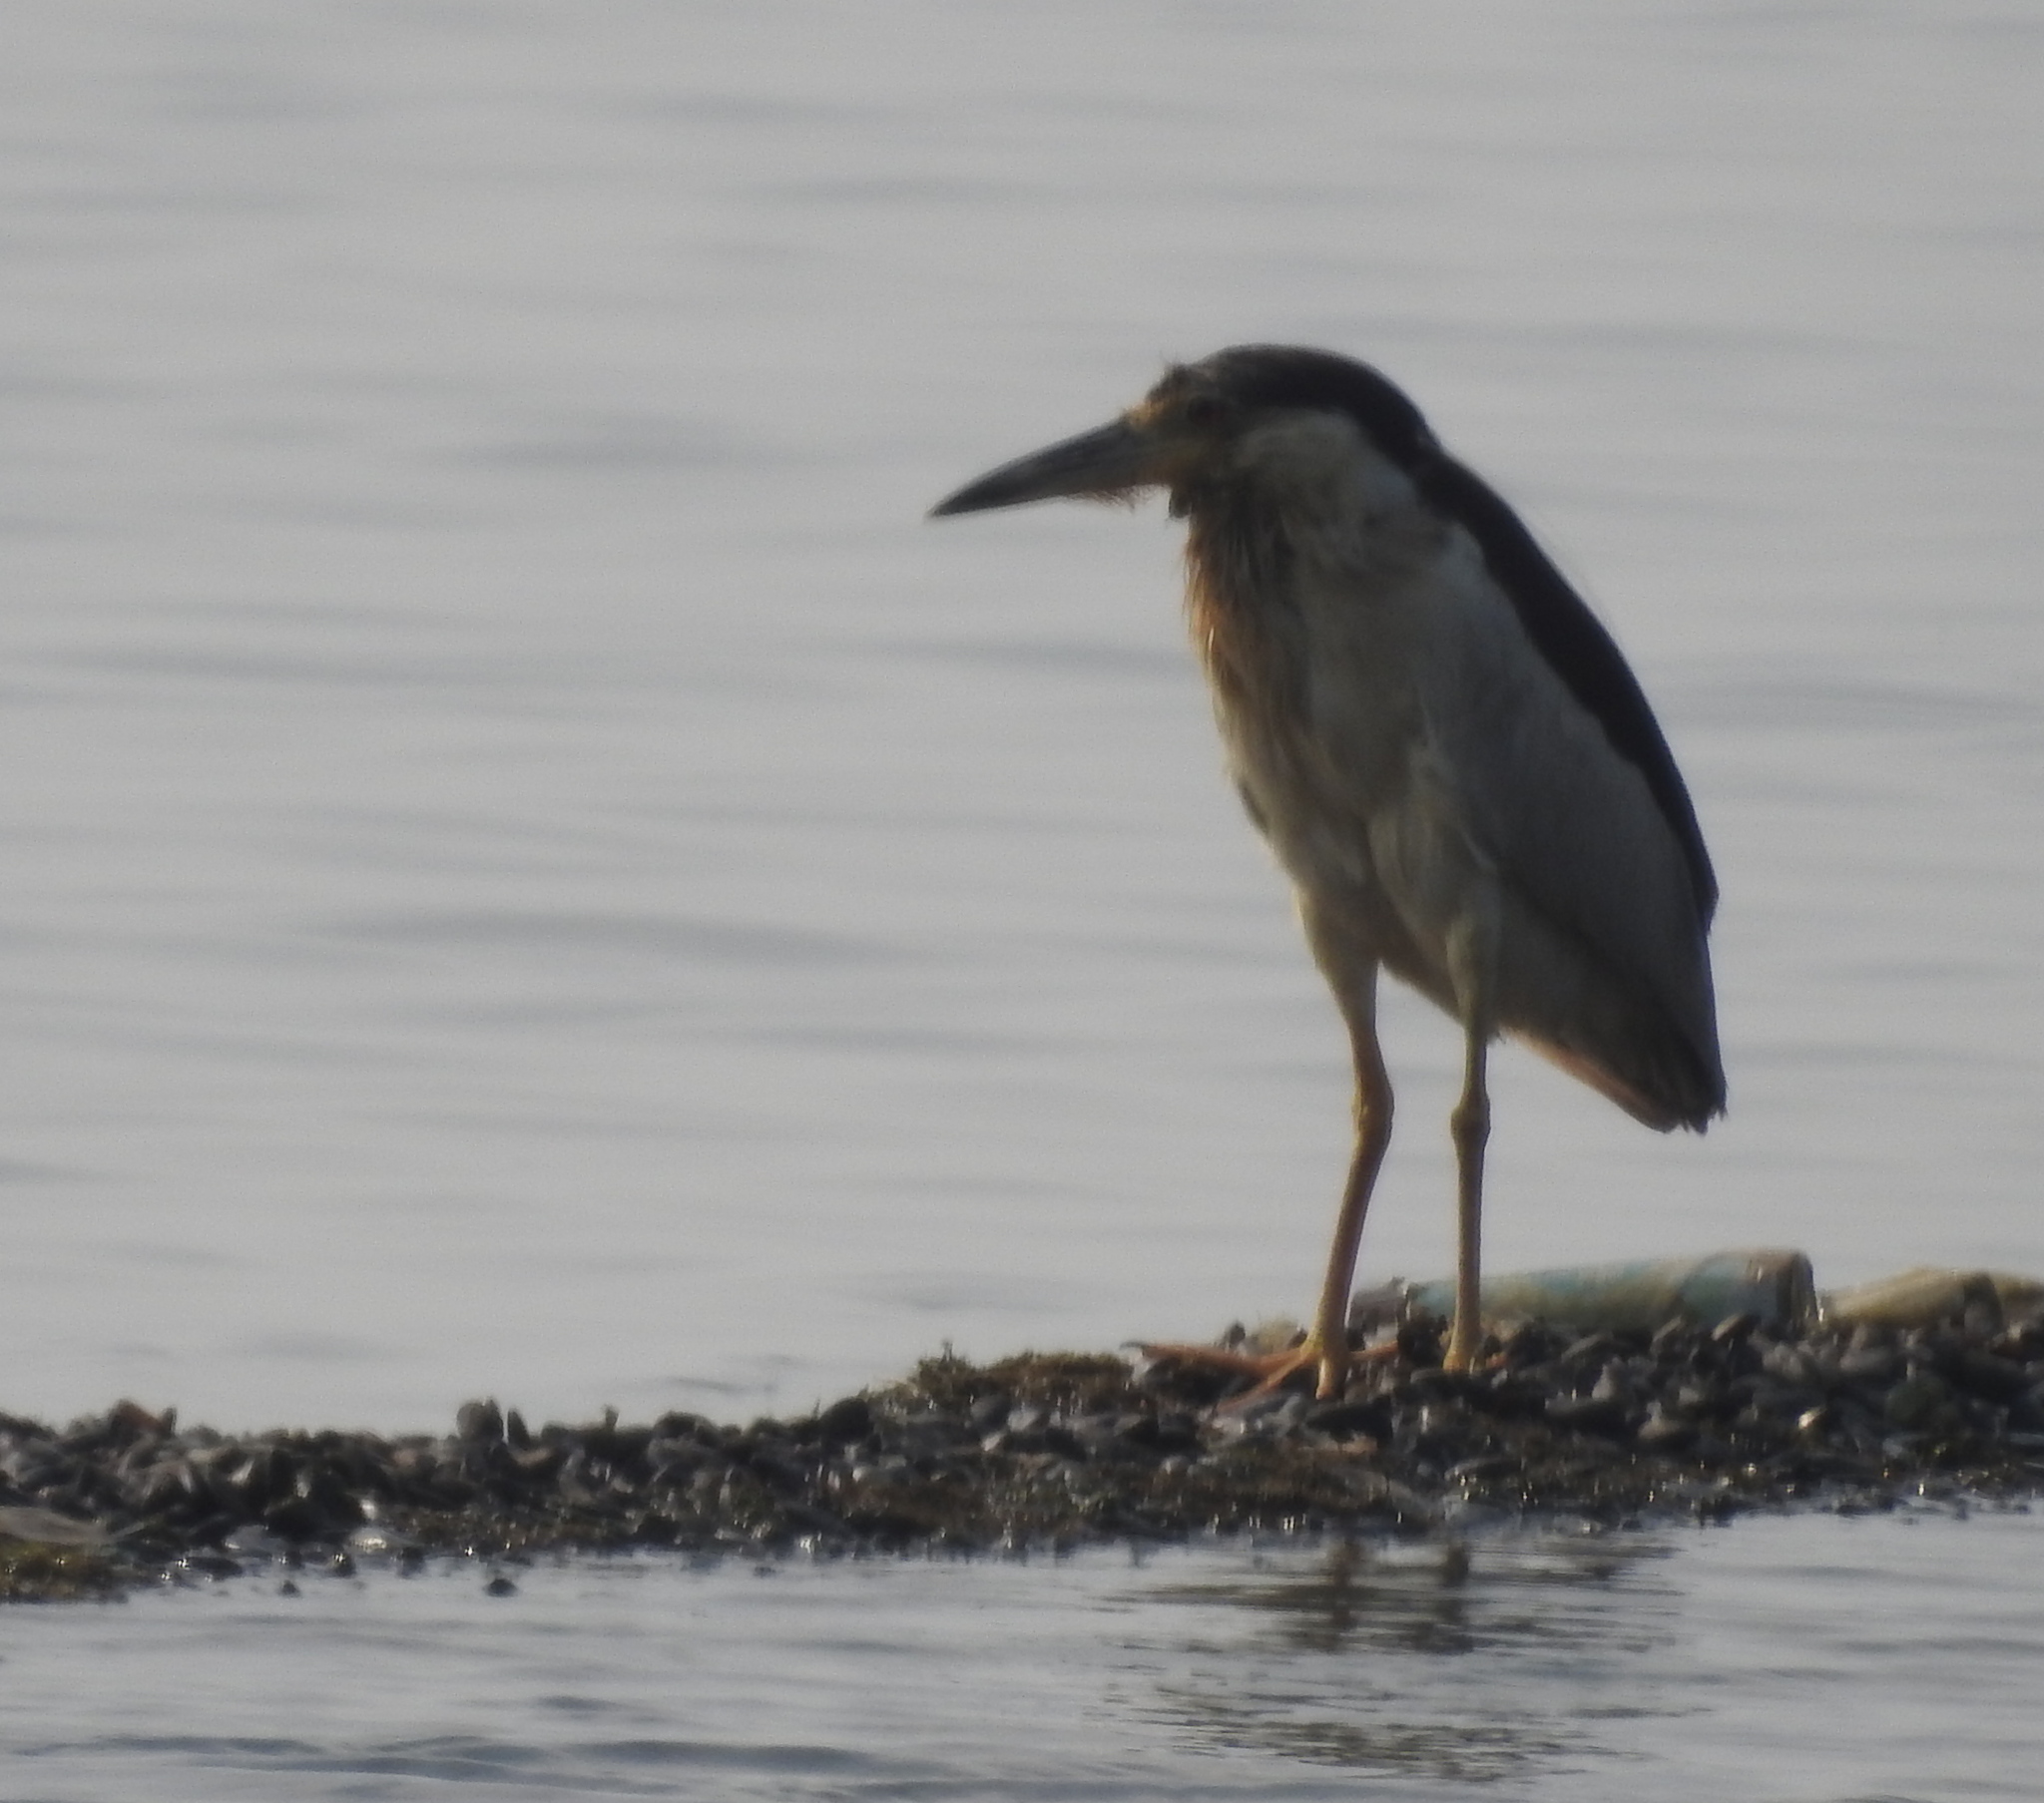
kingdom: Animalia
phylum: Chordata
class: Aves
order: Pelecaniformes
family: Ardeidae
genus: Nycticorax
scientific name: Nycticorax nycticorax
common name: Black-crowned night heron
